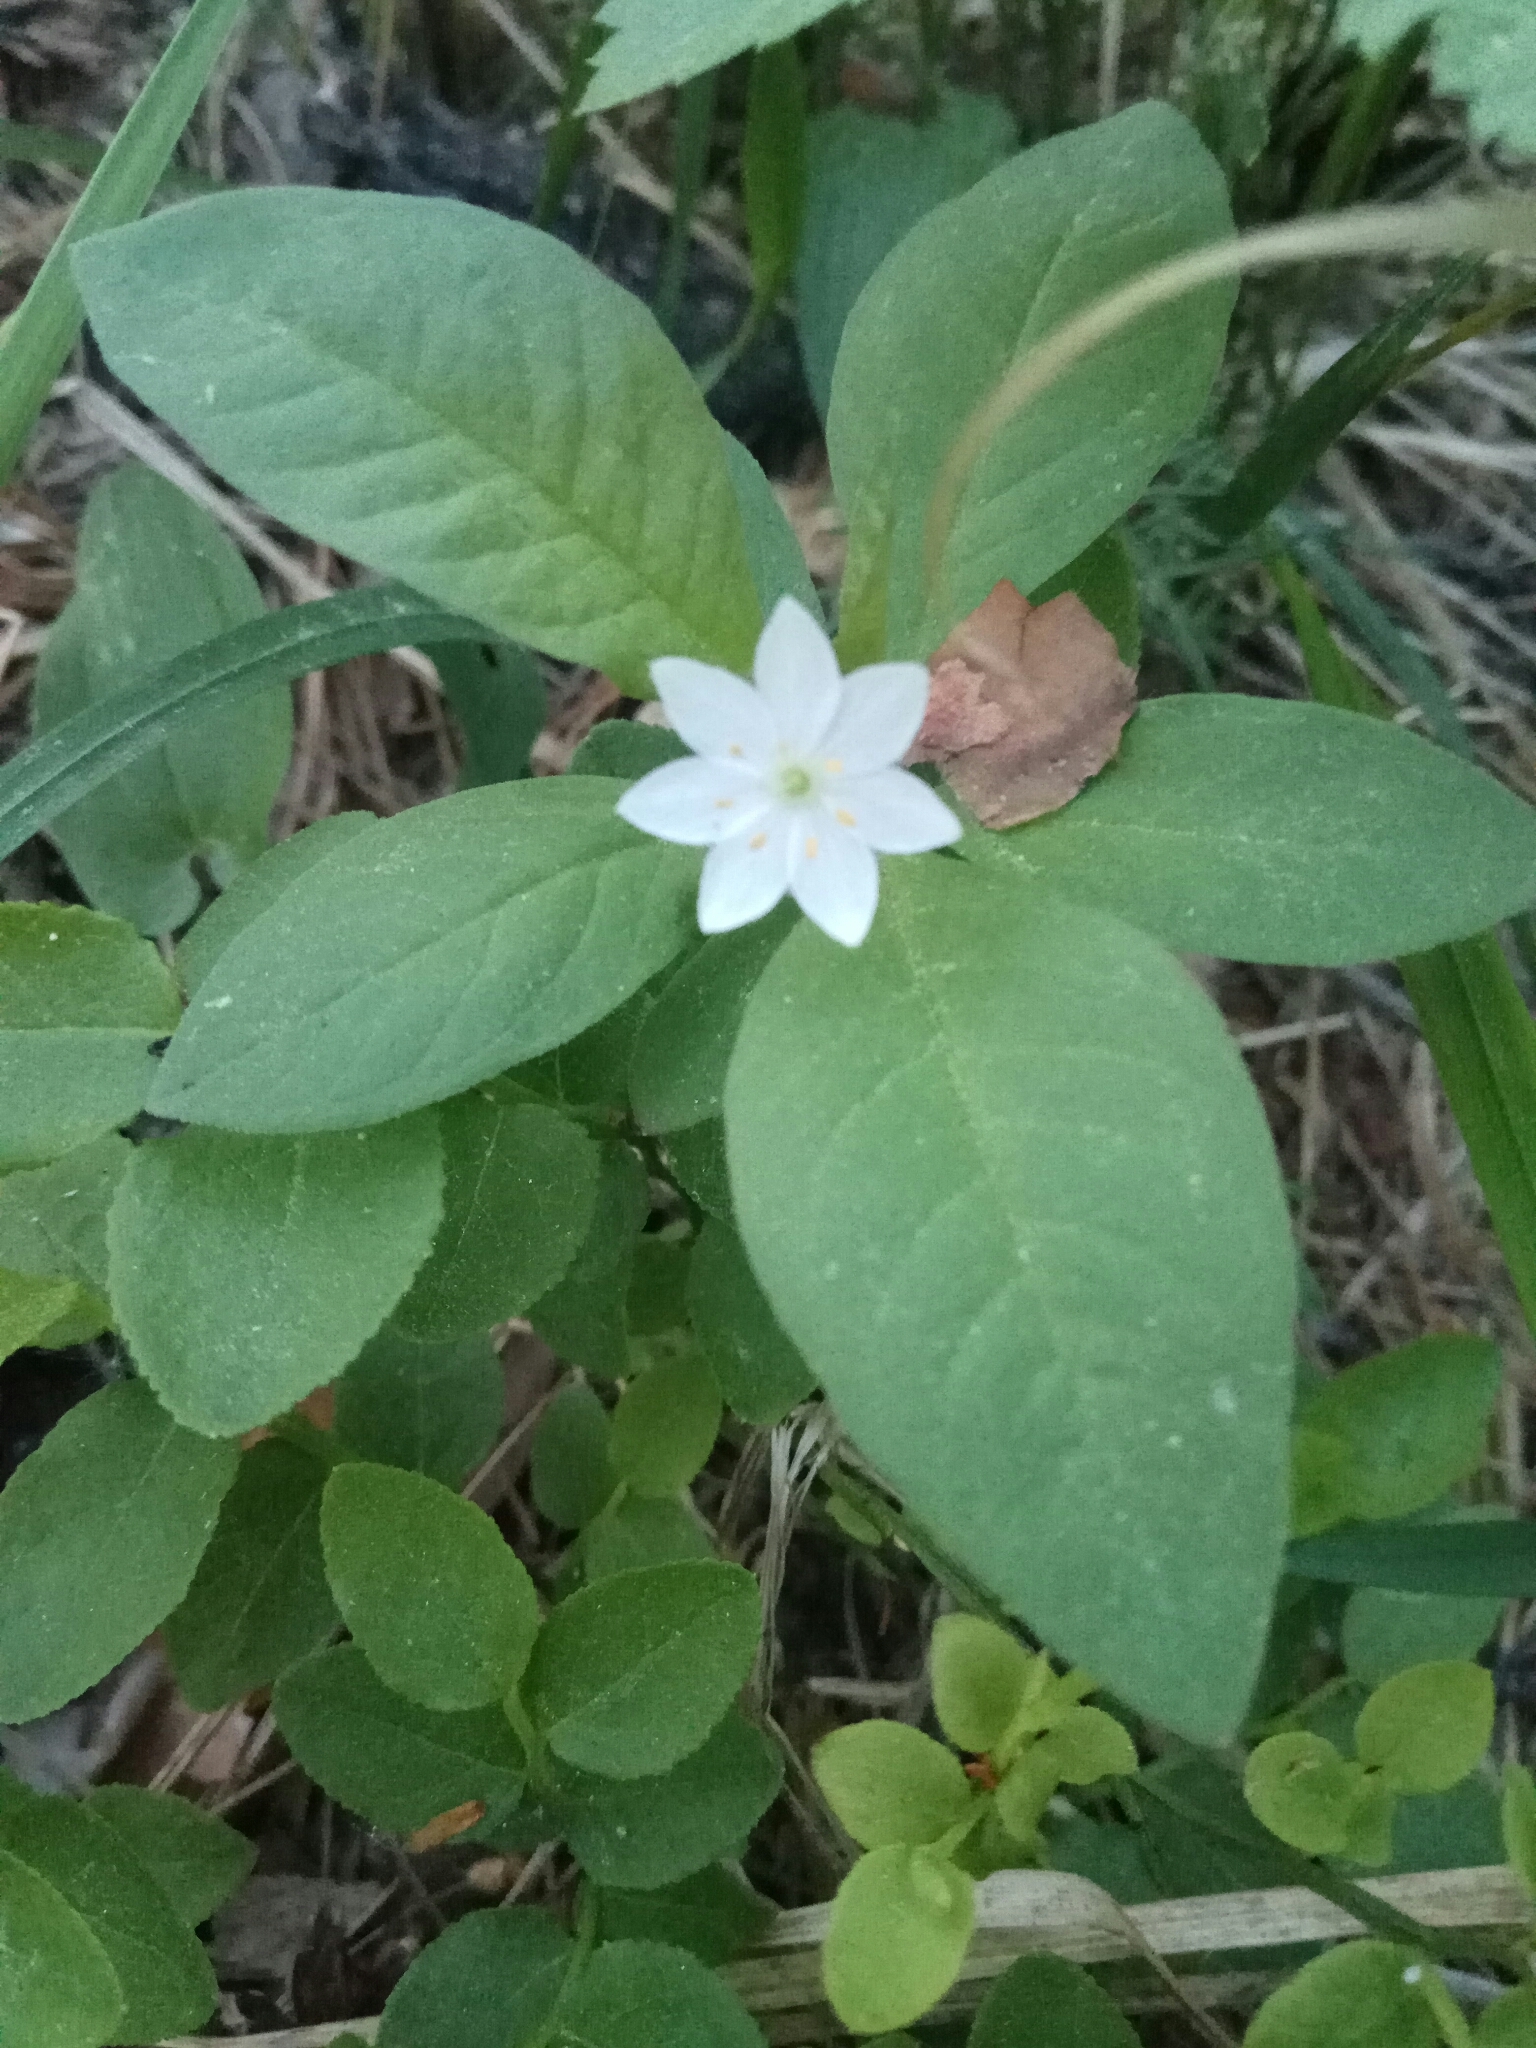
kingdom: Plantae
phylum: Tracheophyta
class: Magnoliopsida
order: Ericales
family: Primulaceae
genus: Lysimachia
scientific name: Lysimachia europaea
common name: Arctic starflower
